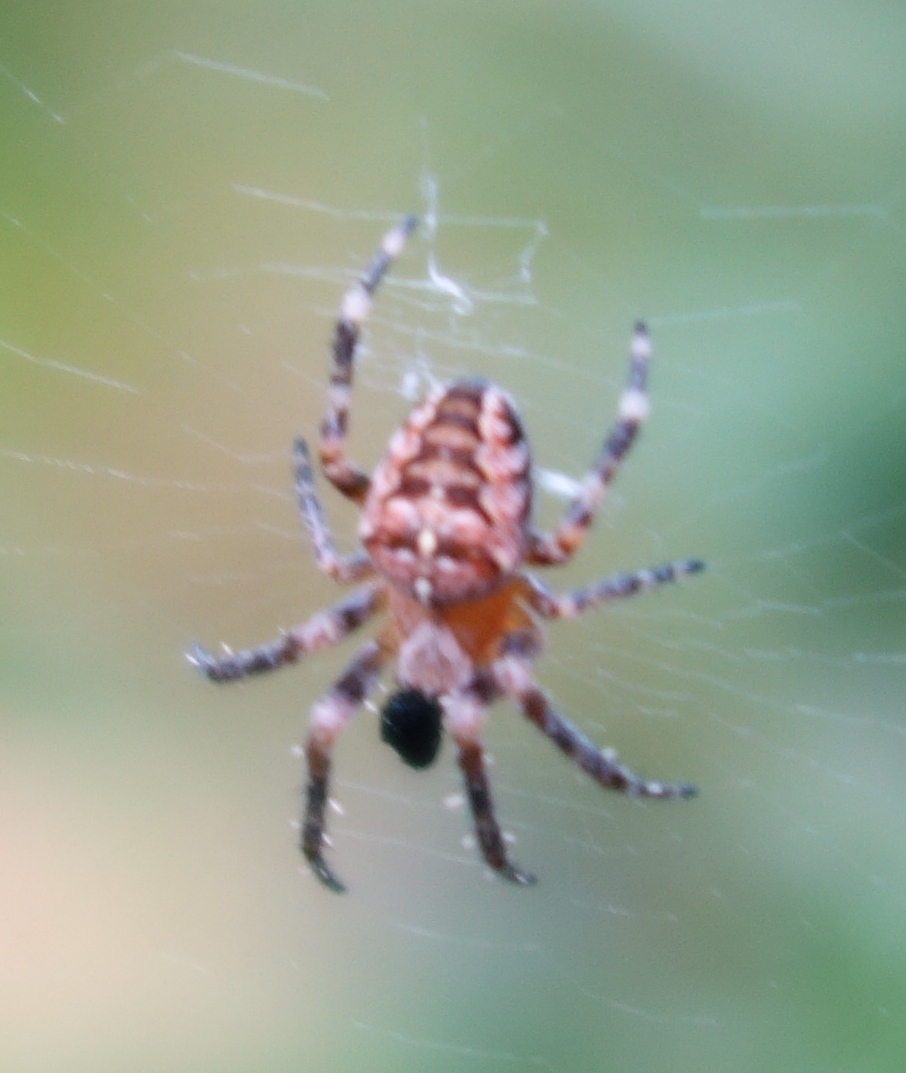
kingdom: Animalia
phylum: Arthropoda
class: Arachnida
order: Araneae
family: Araneidae
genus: Araneus
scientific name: Araneus diadematus
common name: Cross orbweaver
